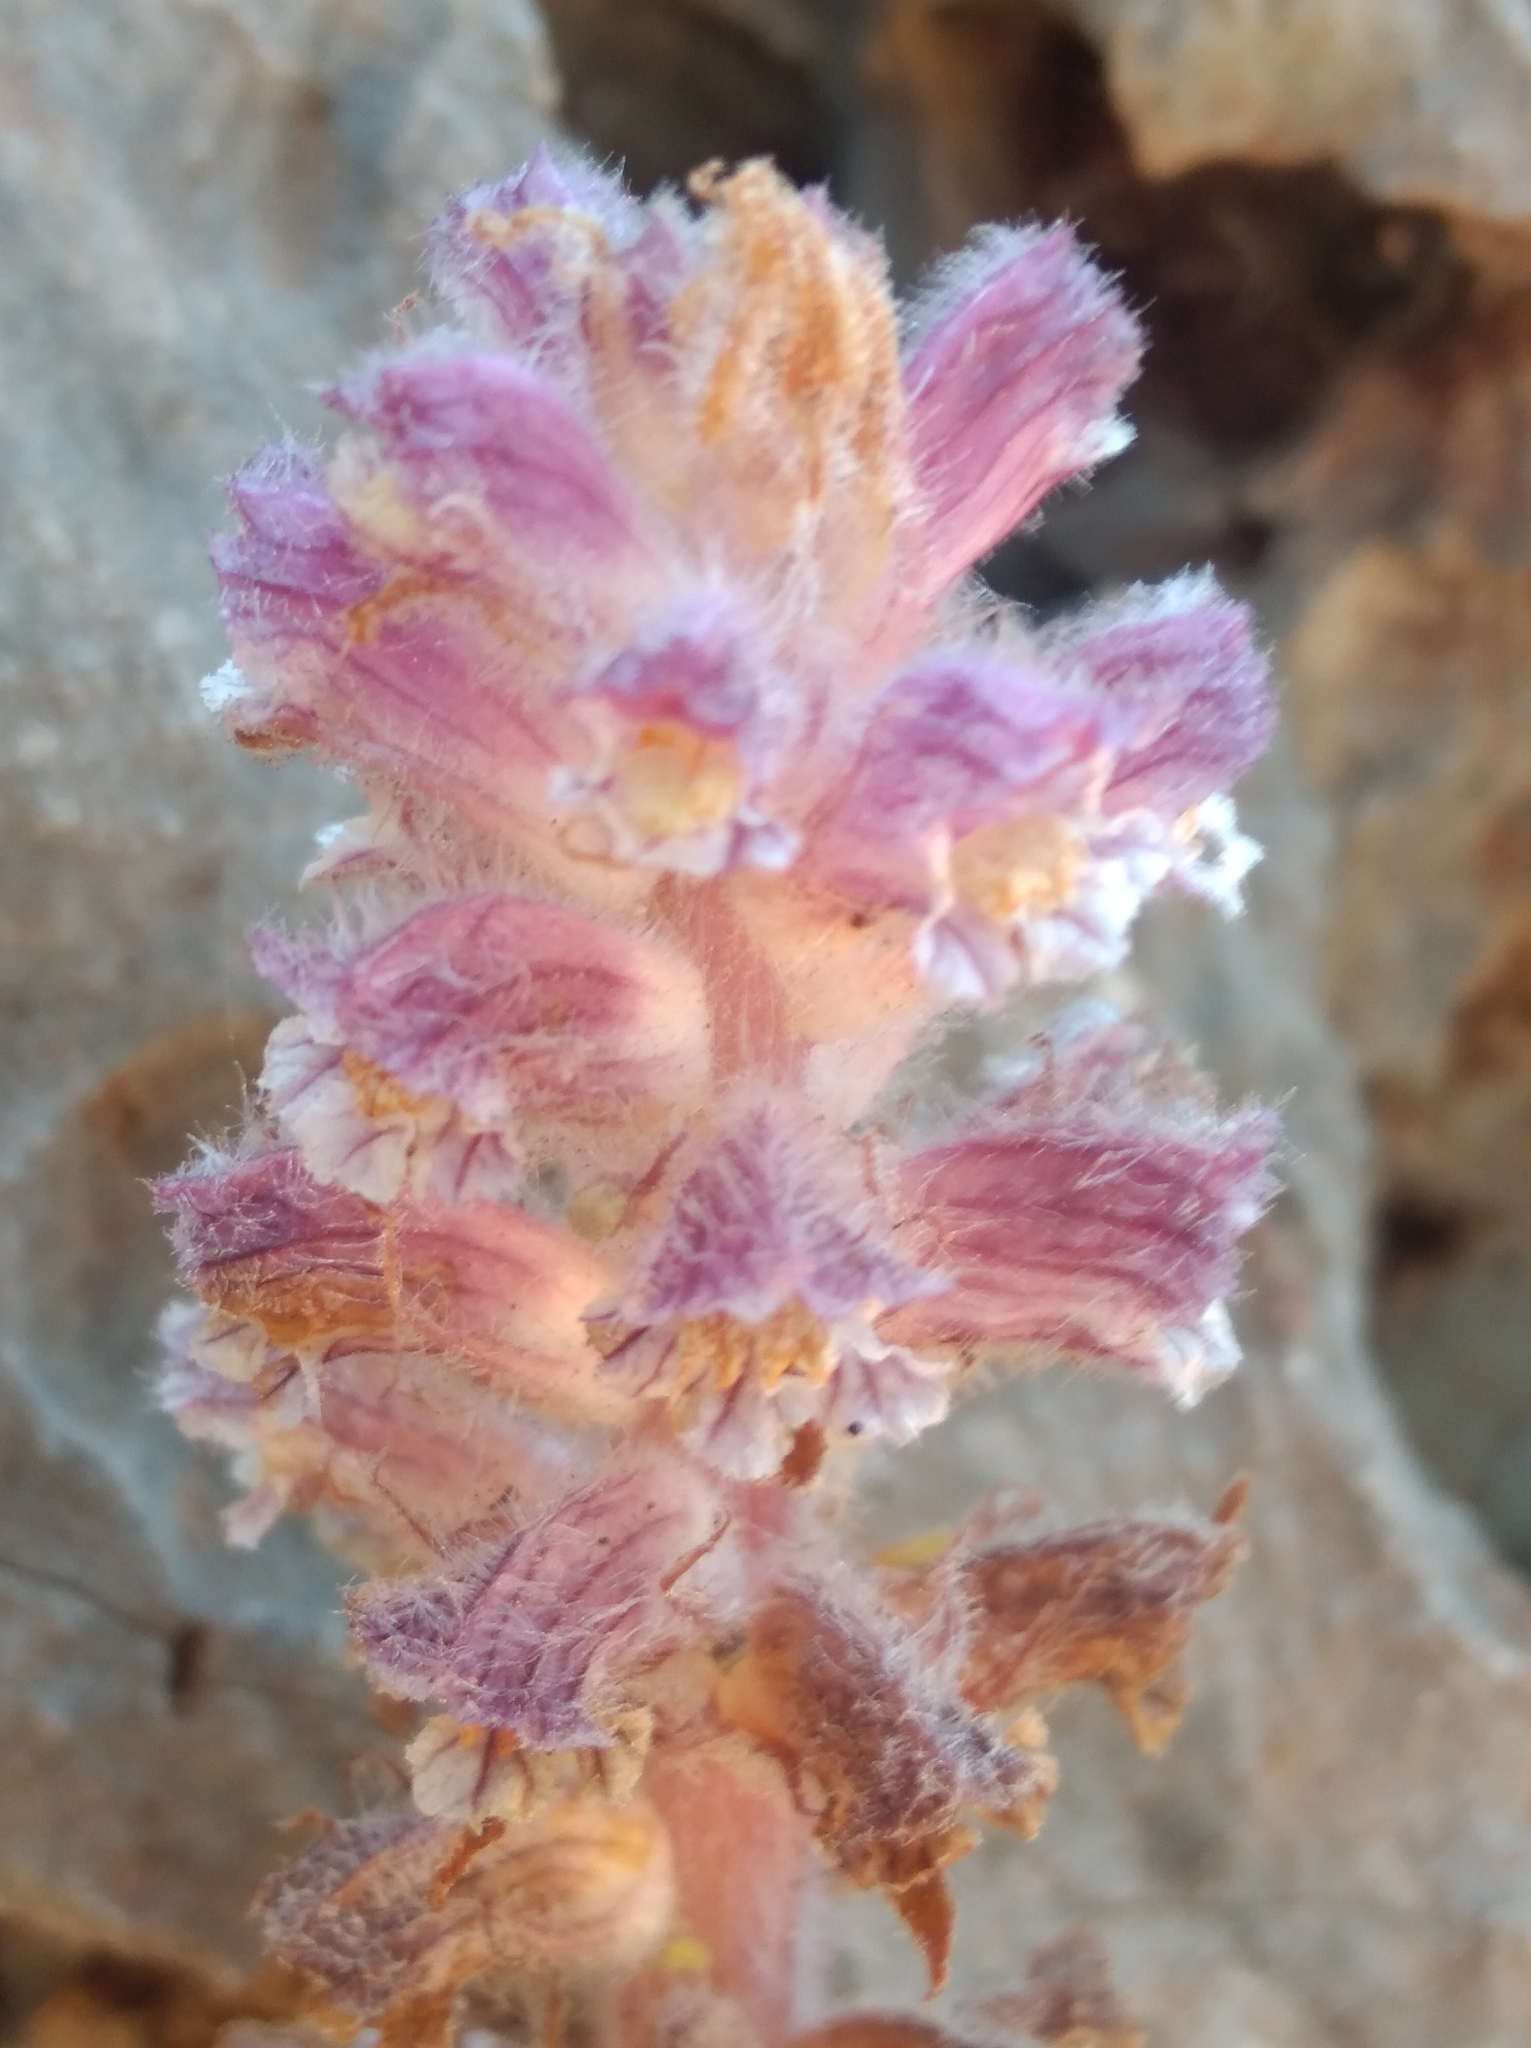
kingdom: Plantae
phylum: Tracheophyta
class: Magnoliopsida
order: Lamiales
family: Orobanchaceae
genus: Orobanche
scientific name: Orobanche pubescens
